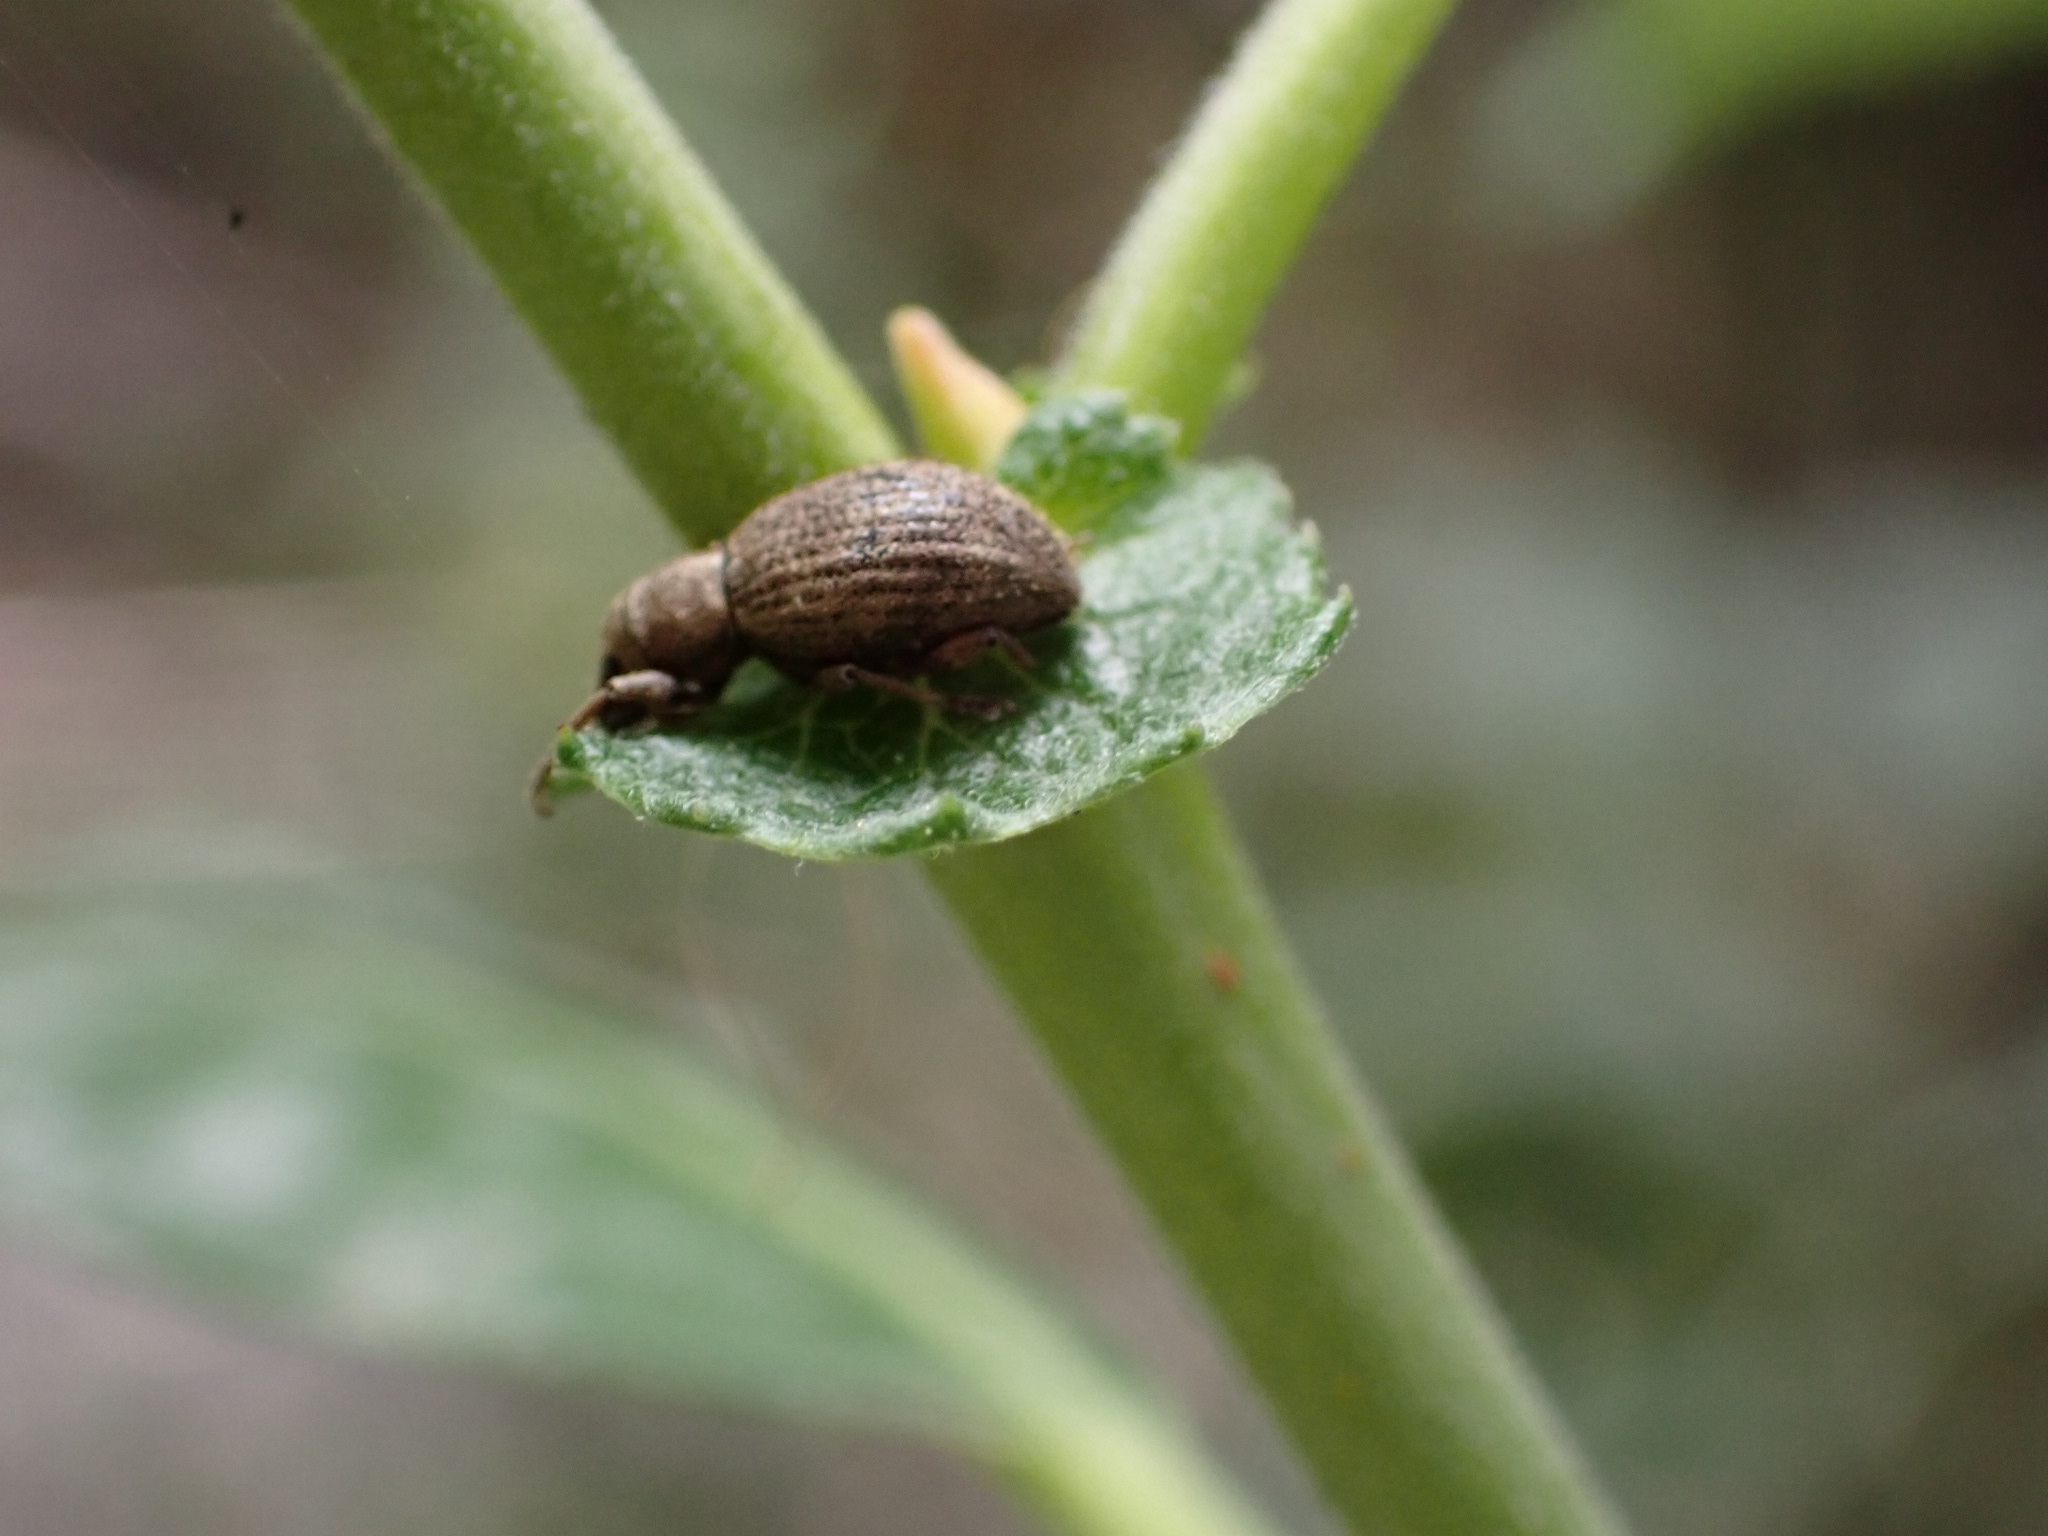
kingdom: Animalia
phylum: Arthropoda
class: Insecta
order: Coleoptera
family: Curculionidae
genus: Sciaphilus
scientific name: Sciaphilus asperatus
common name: Weevil
